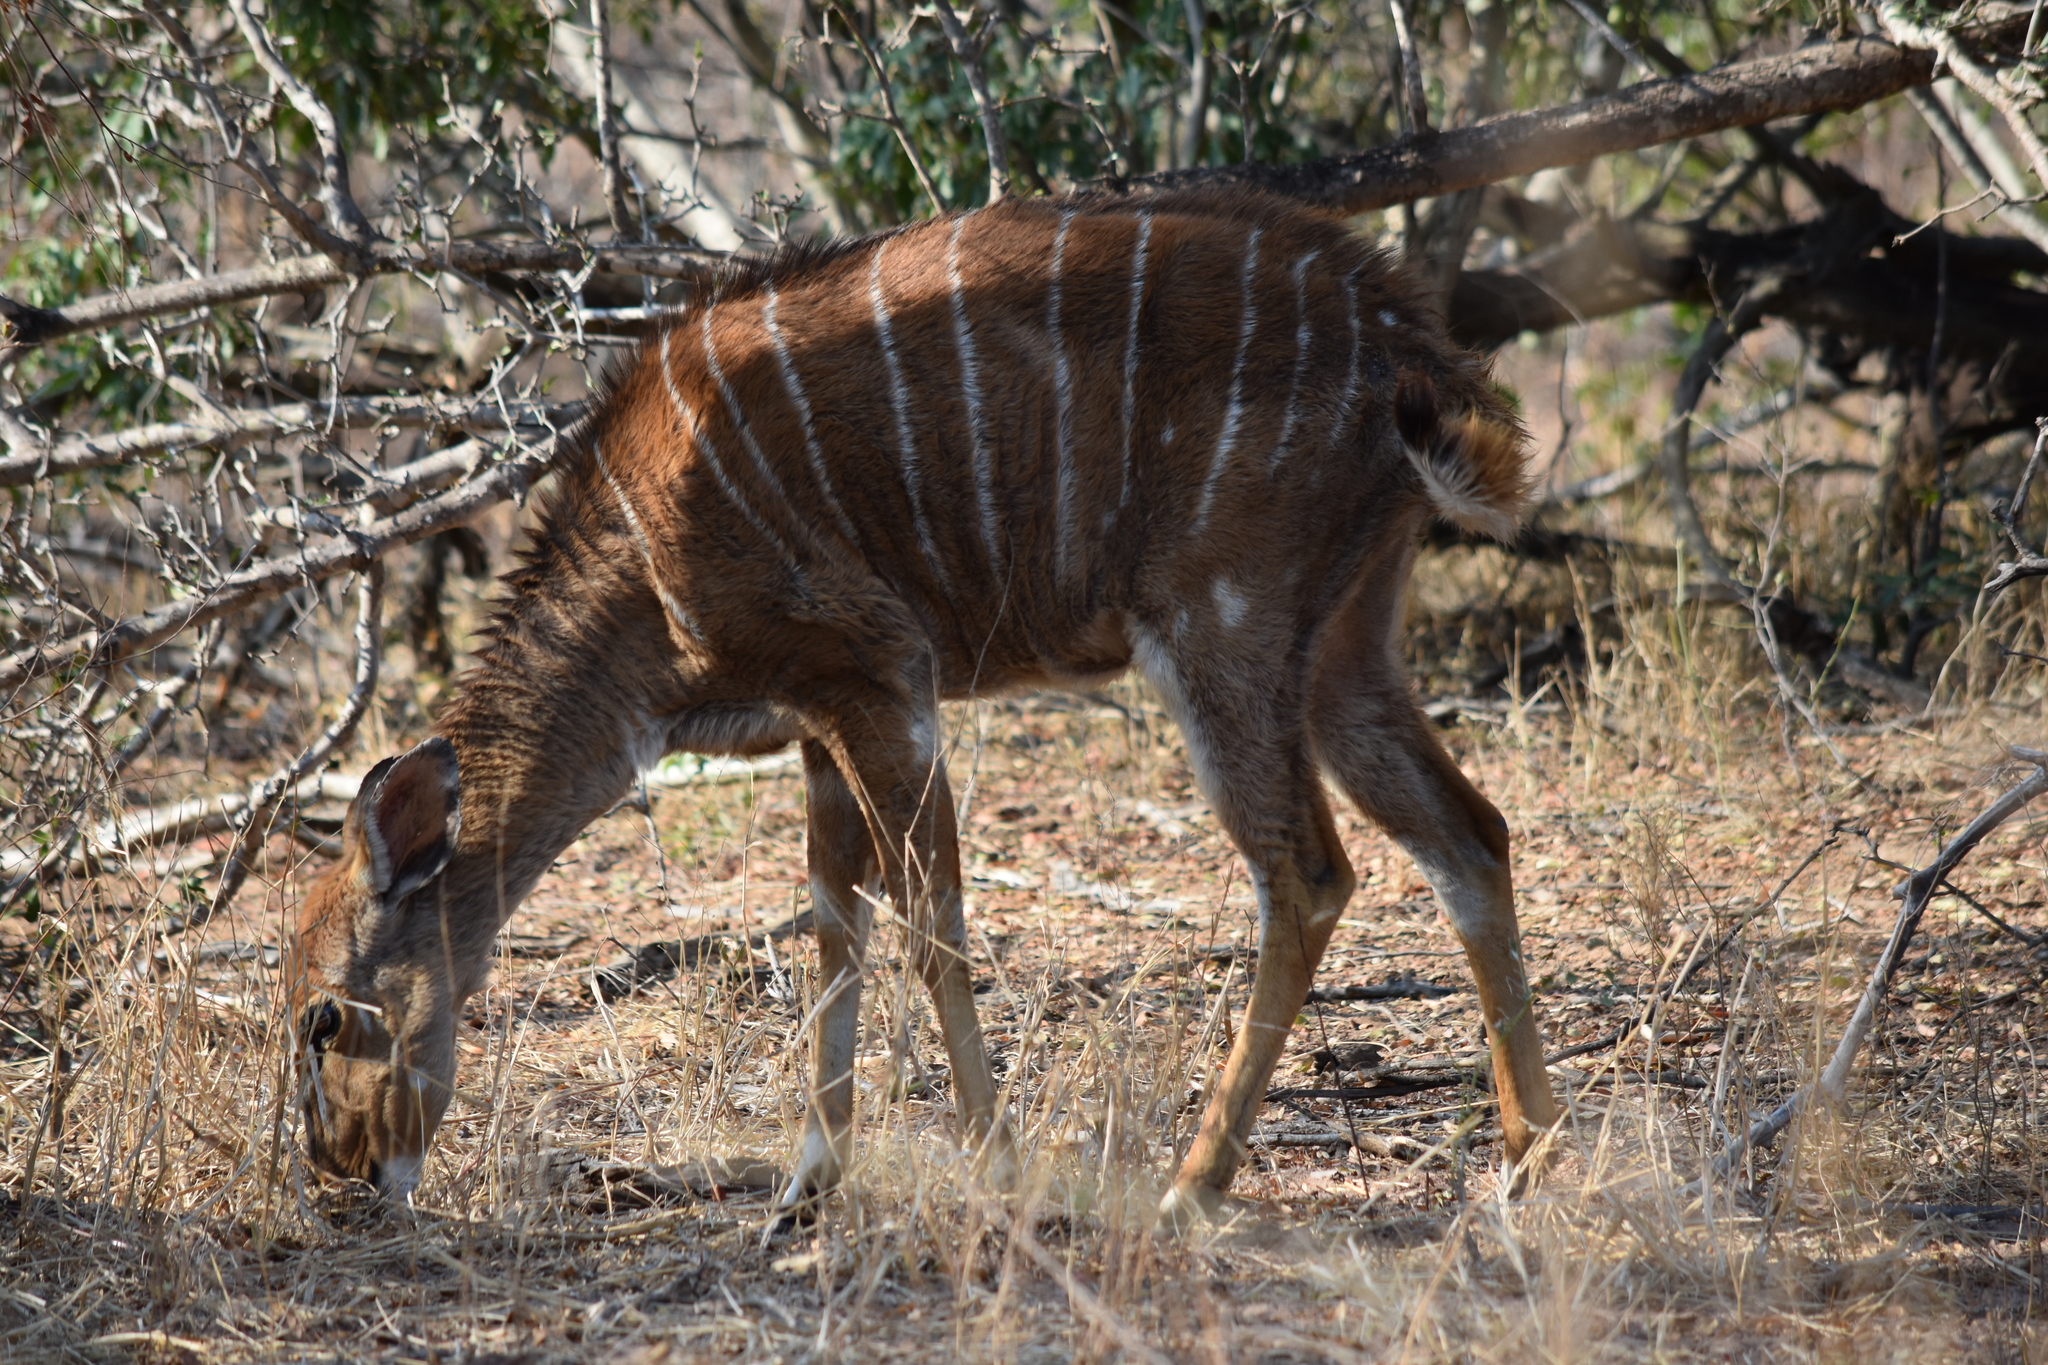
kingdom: Animalia
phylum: Chordata
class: Mammalia
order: Artiodactyla
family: Bovidae
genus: Tragelaphus
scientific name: Tragelaphus angasii
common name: Nyala
